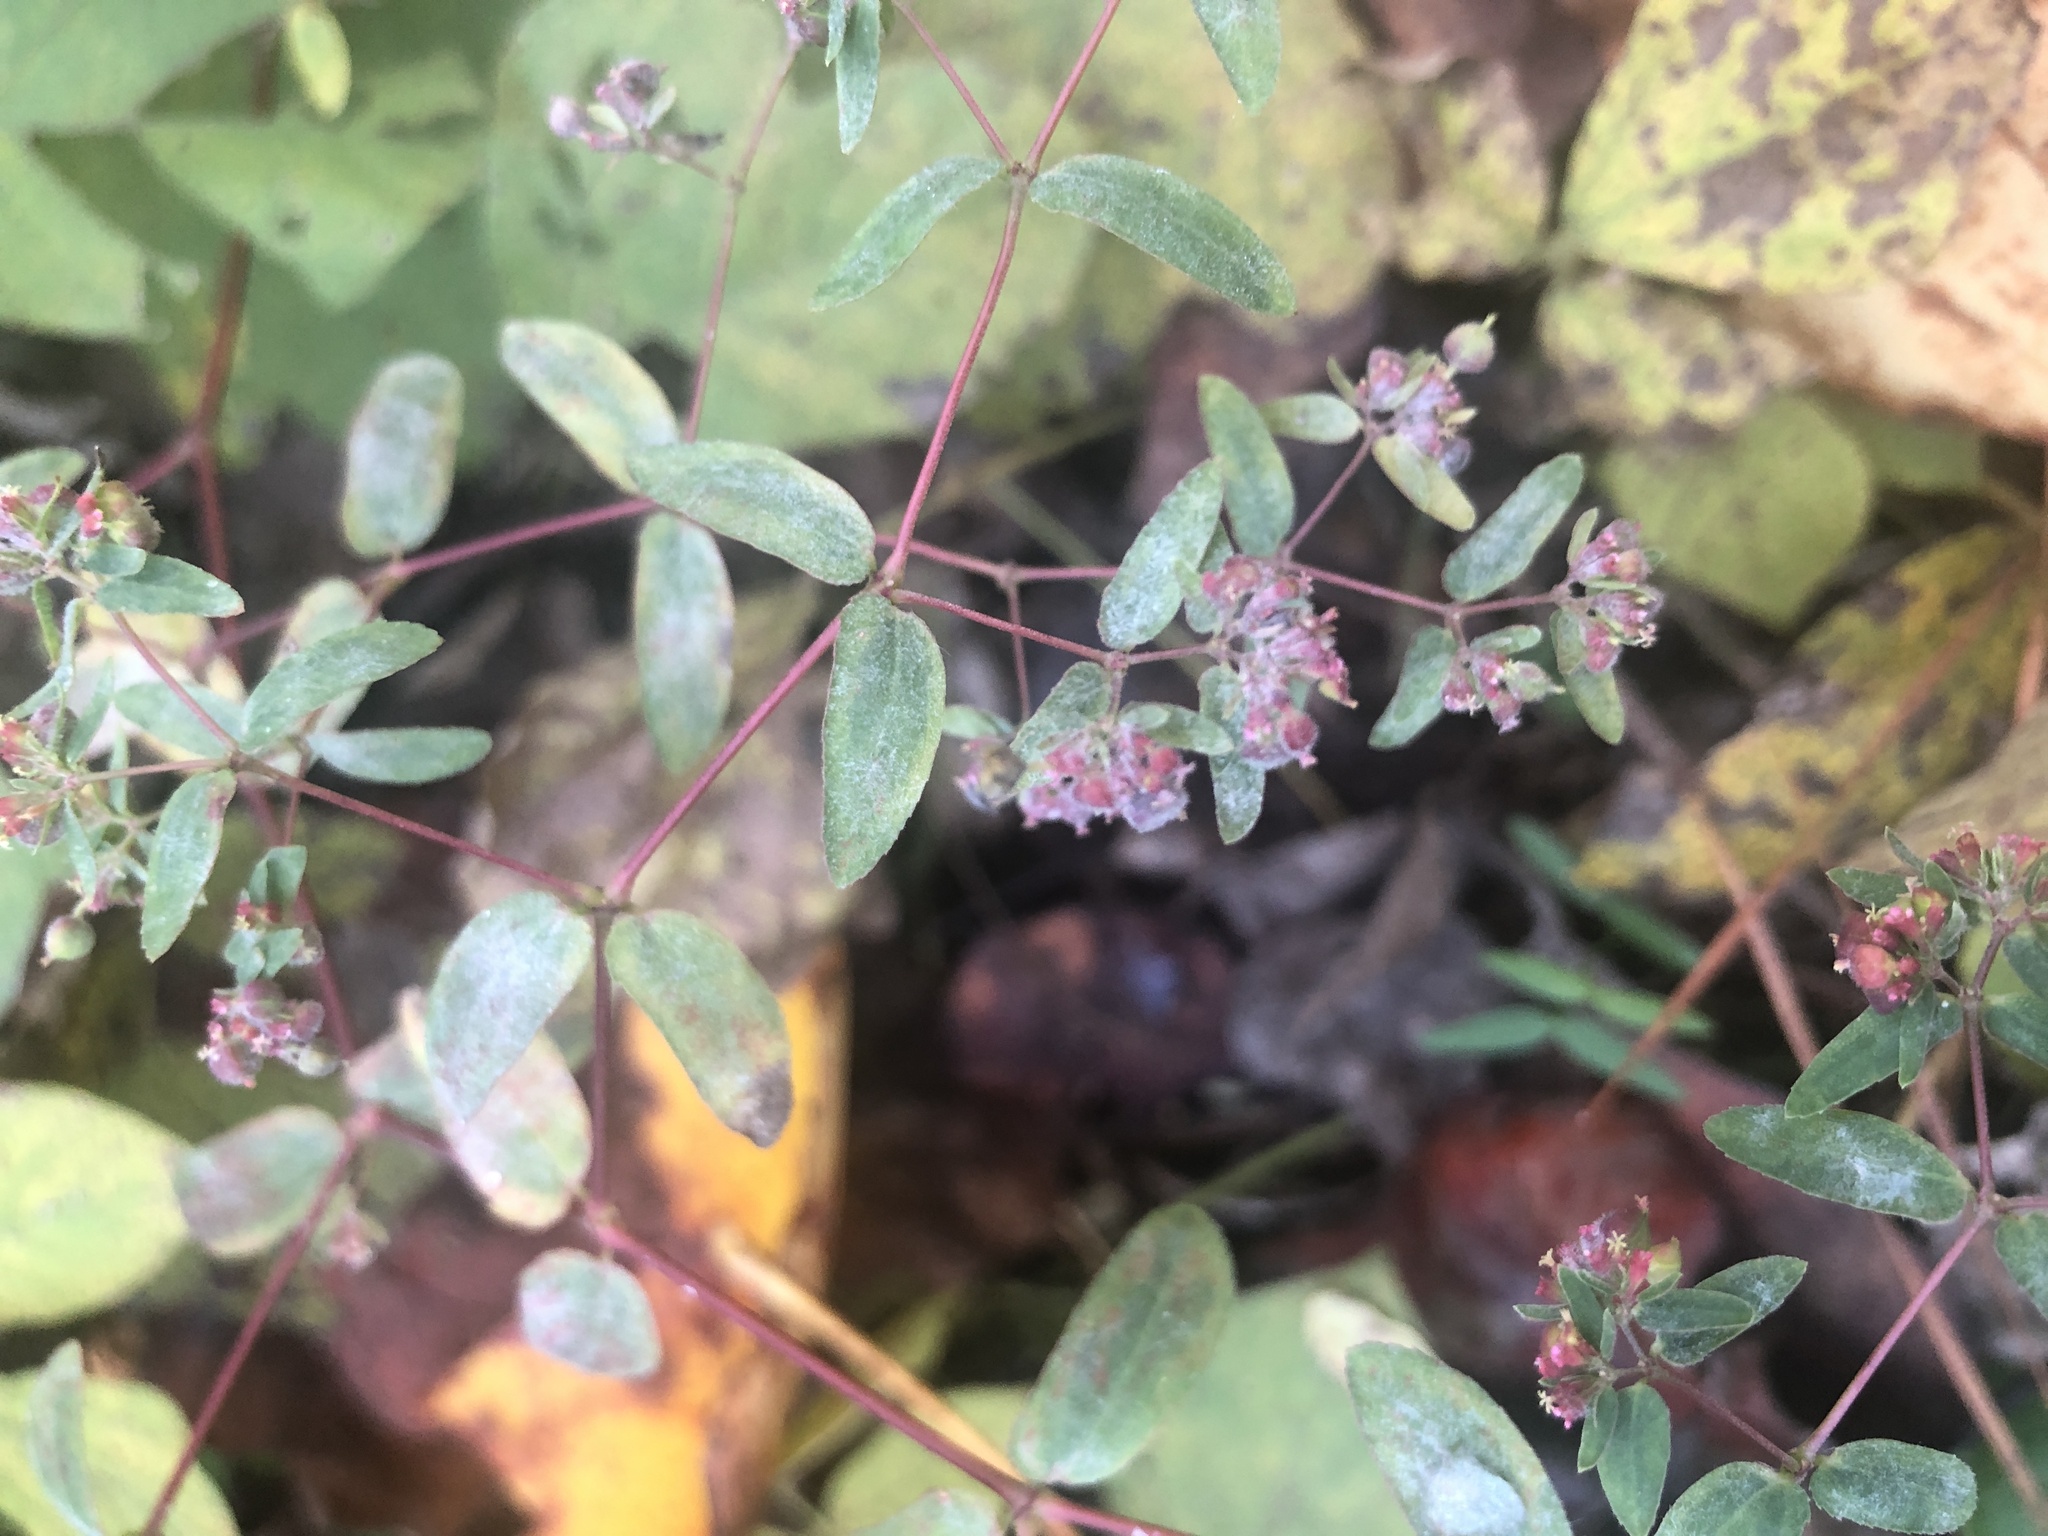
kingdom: Plantae
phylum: Tracheophyta
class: Magnoliopsida
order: Malpighiales
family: Euphorbiaceae
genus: Euphorbia
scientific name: Euphorbia nutans
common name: Eyebane
